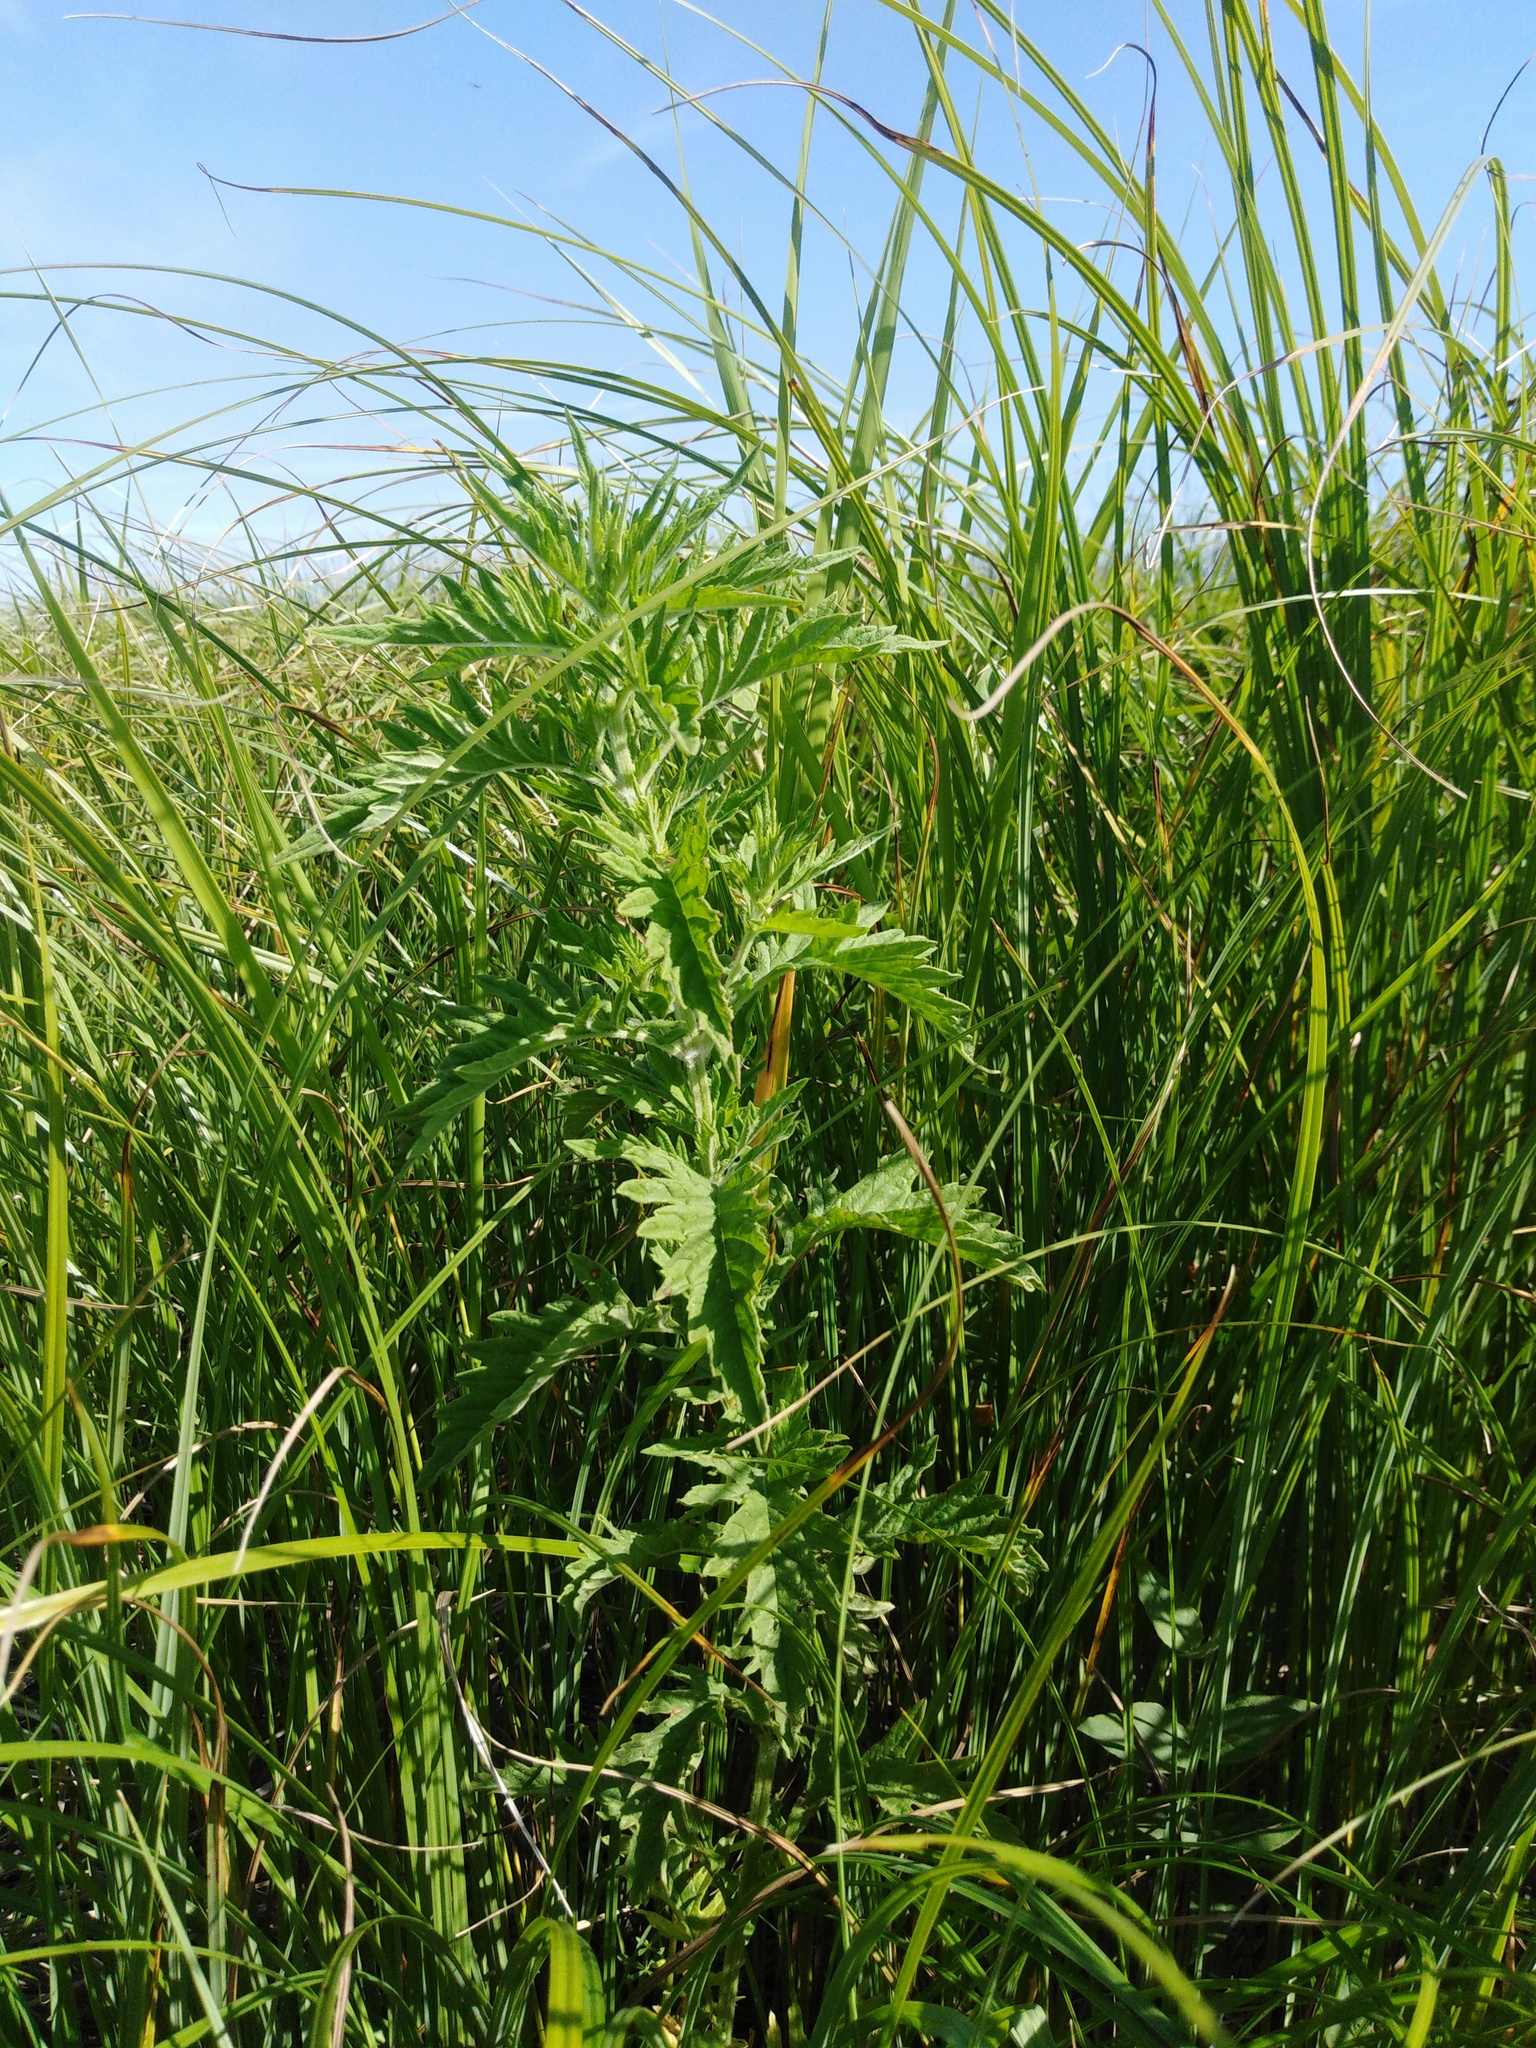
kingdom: Plantae
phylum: Tracheophyta
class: Magnoliopsida
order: Lamiales
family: Lamiaceae
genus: Lycopus
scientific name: Lycopus exaltatus
